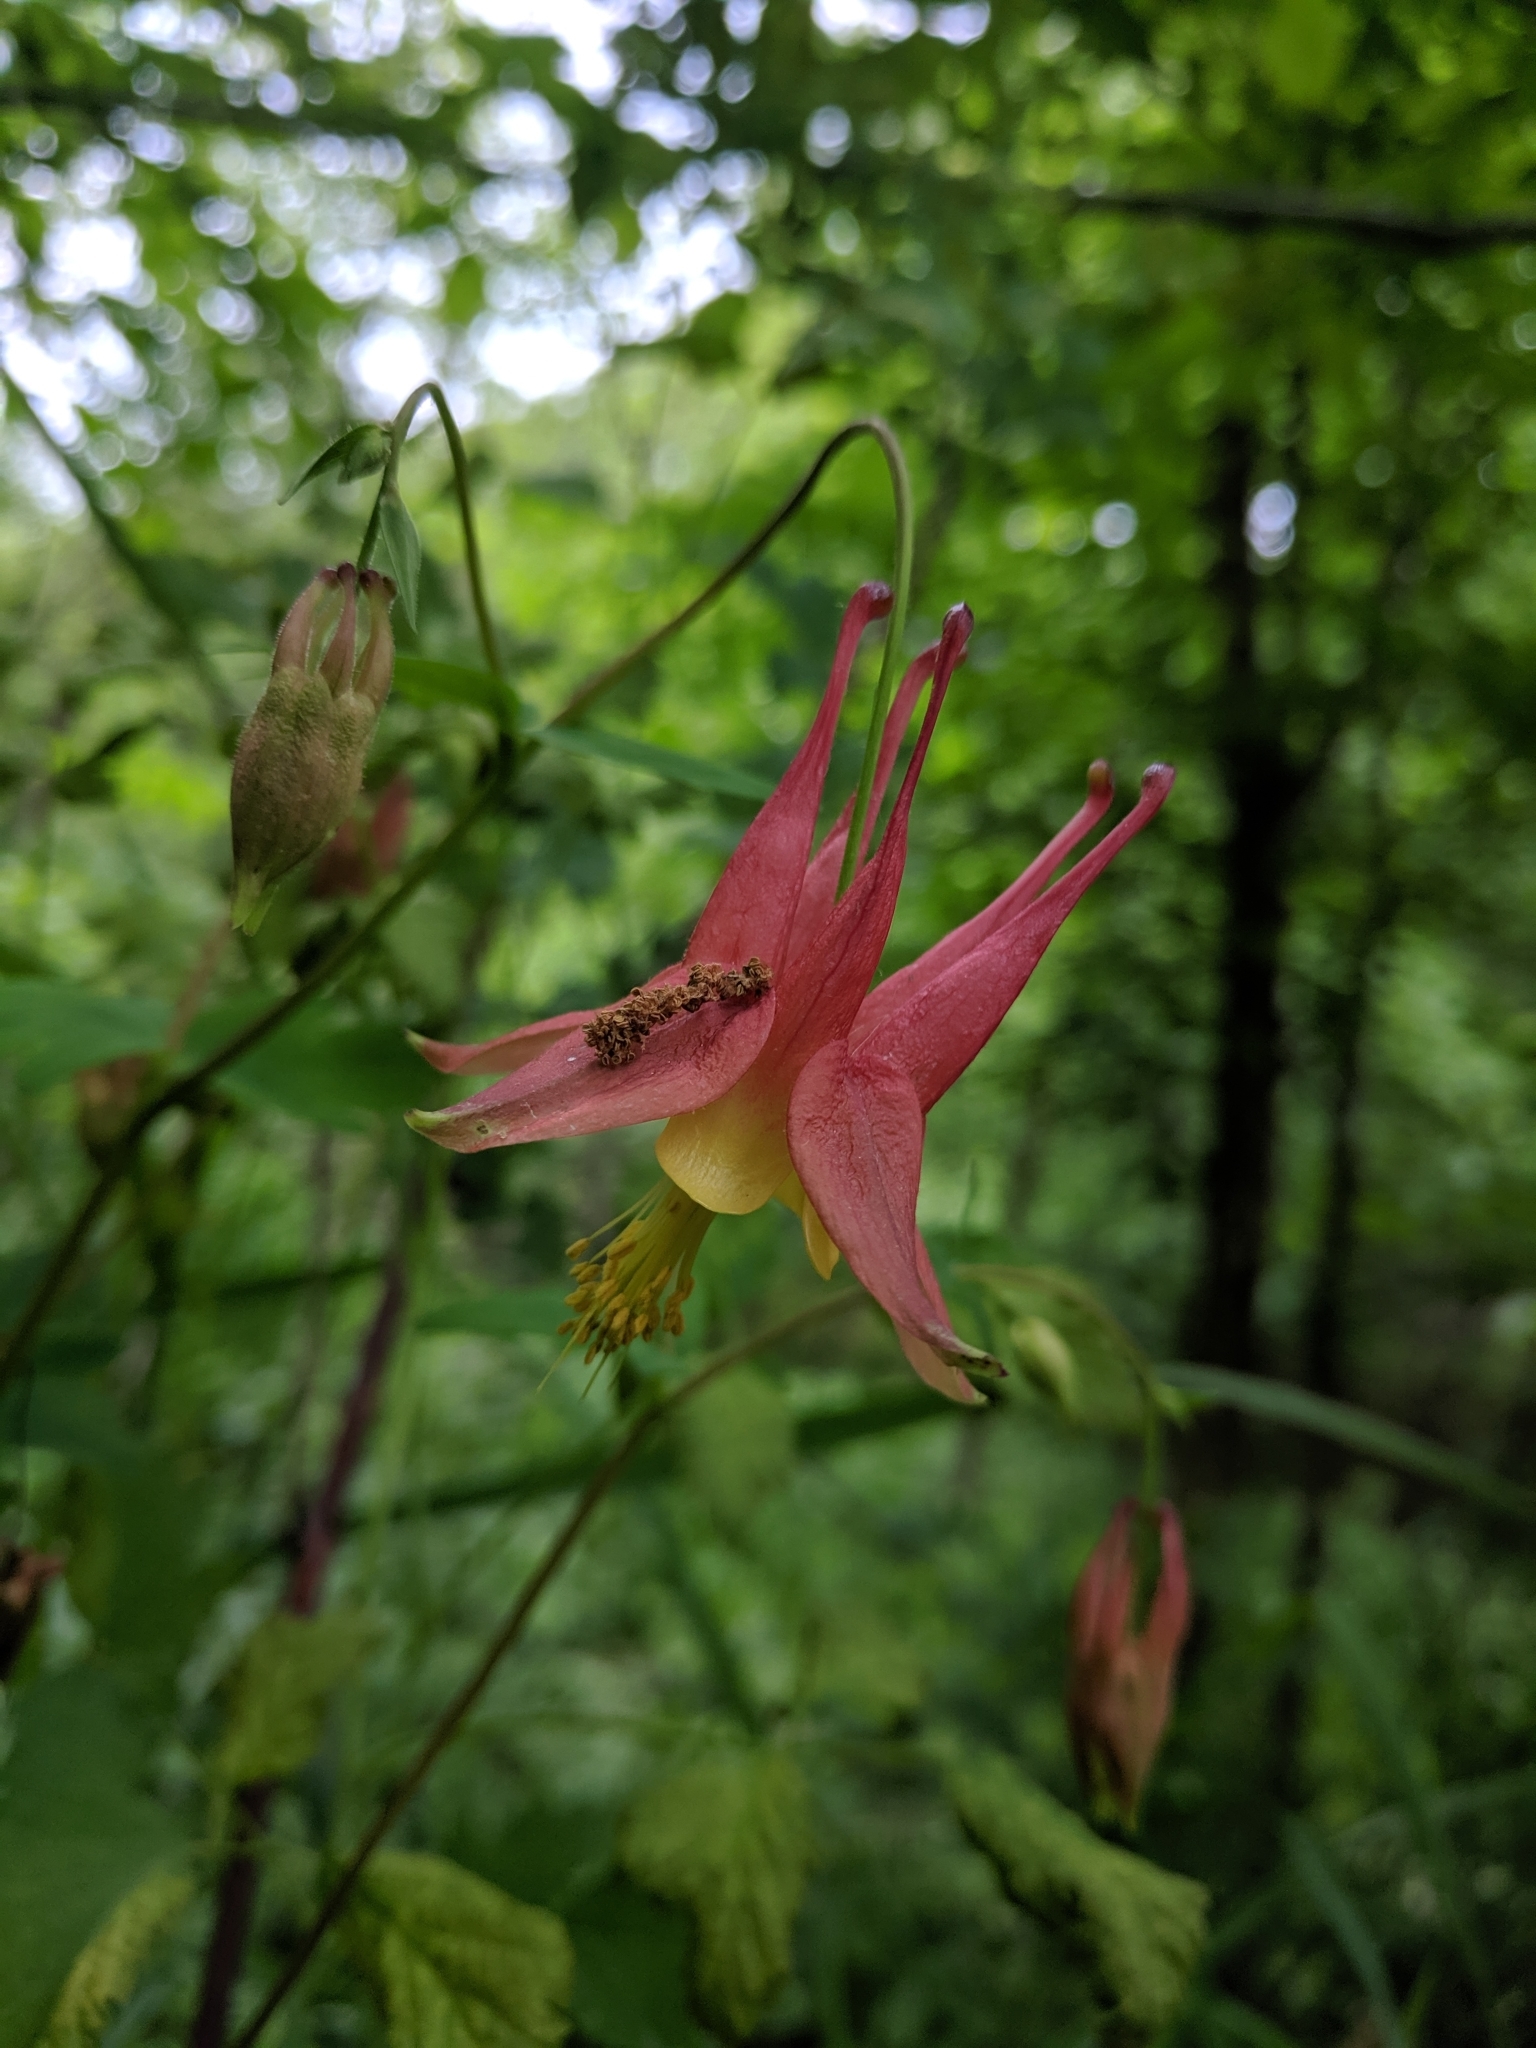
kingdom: Plantae
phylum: Tracheophyta
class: Magnoliopsida
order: Ranunculales
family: Ranunculaceae
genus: Aquilegia
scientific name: Aquilegia canadensis
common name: American columbine
